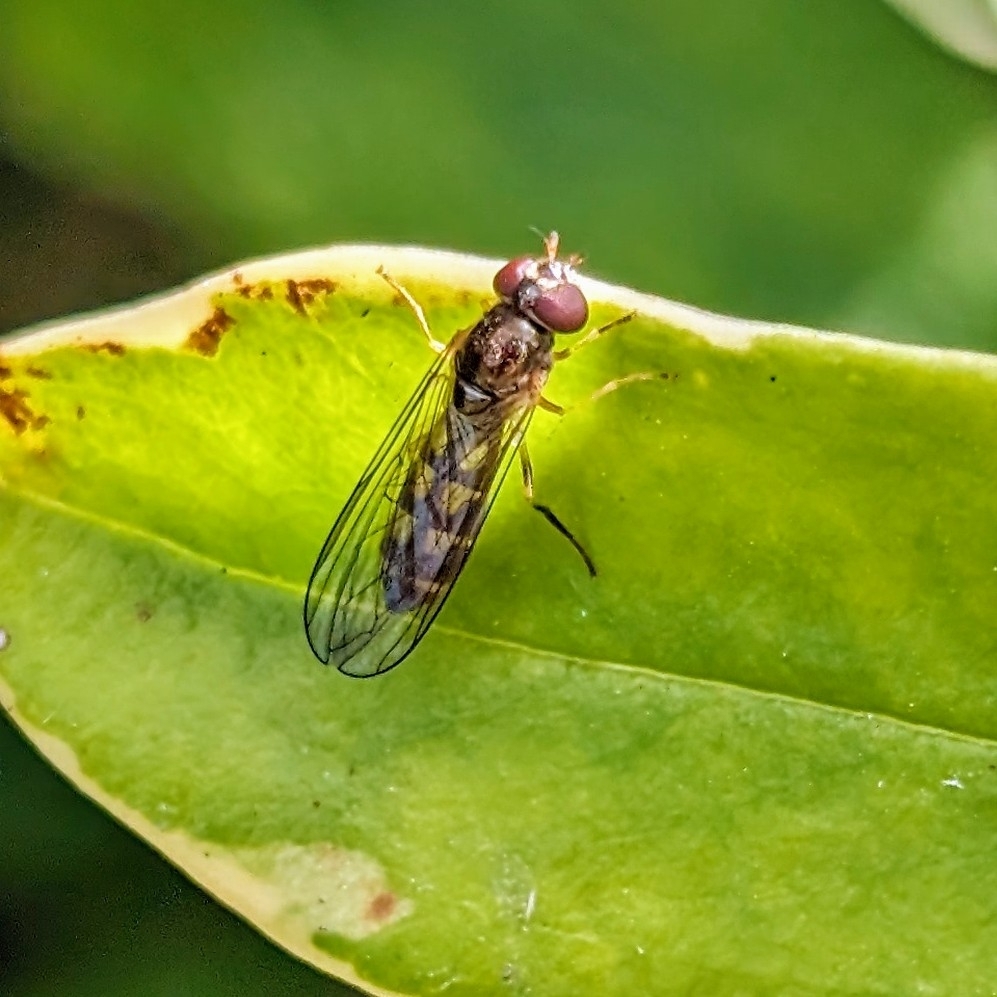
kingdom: Animalia
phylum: Arthropoda
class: Insecta
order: Diptera
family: Syrphidae
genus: Melanostoma
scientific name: Melanostoma scalare
